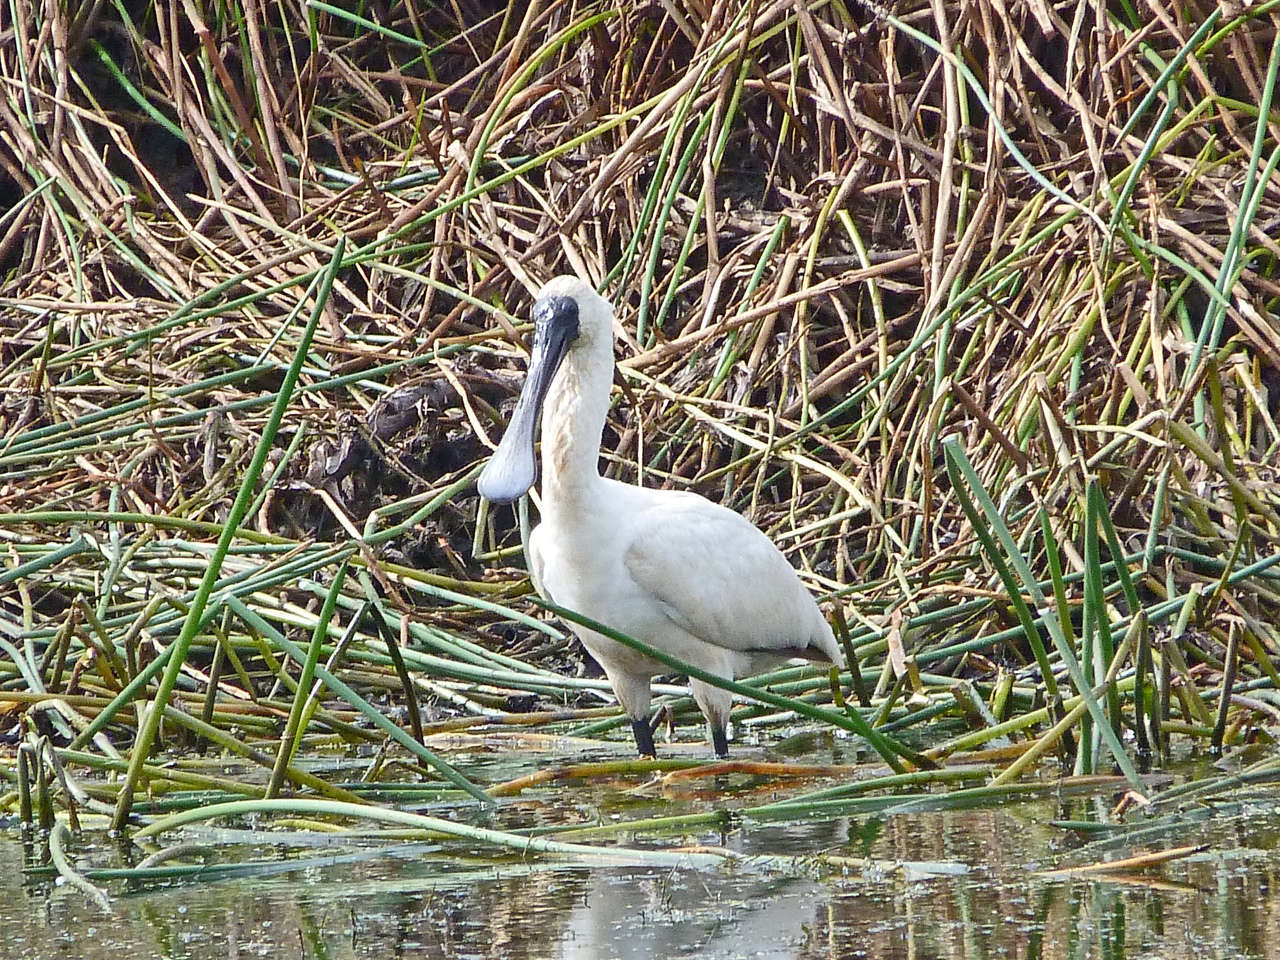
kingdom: Animalia
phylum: Chordata
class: Aves
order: Pelecaniformes
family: Threskiornithidae
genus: Platalea
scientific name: Platalea regia
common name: Royal spoonbill
